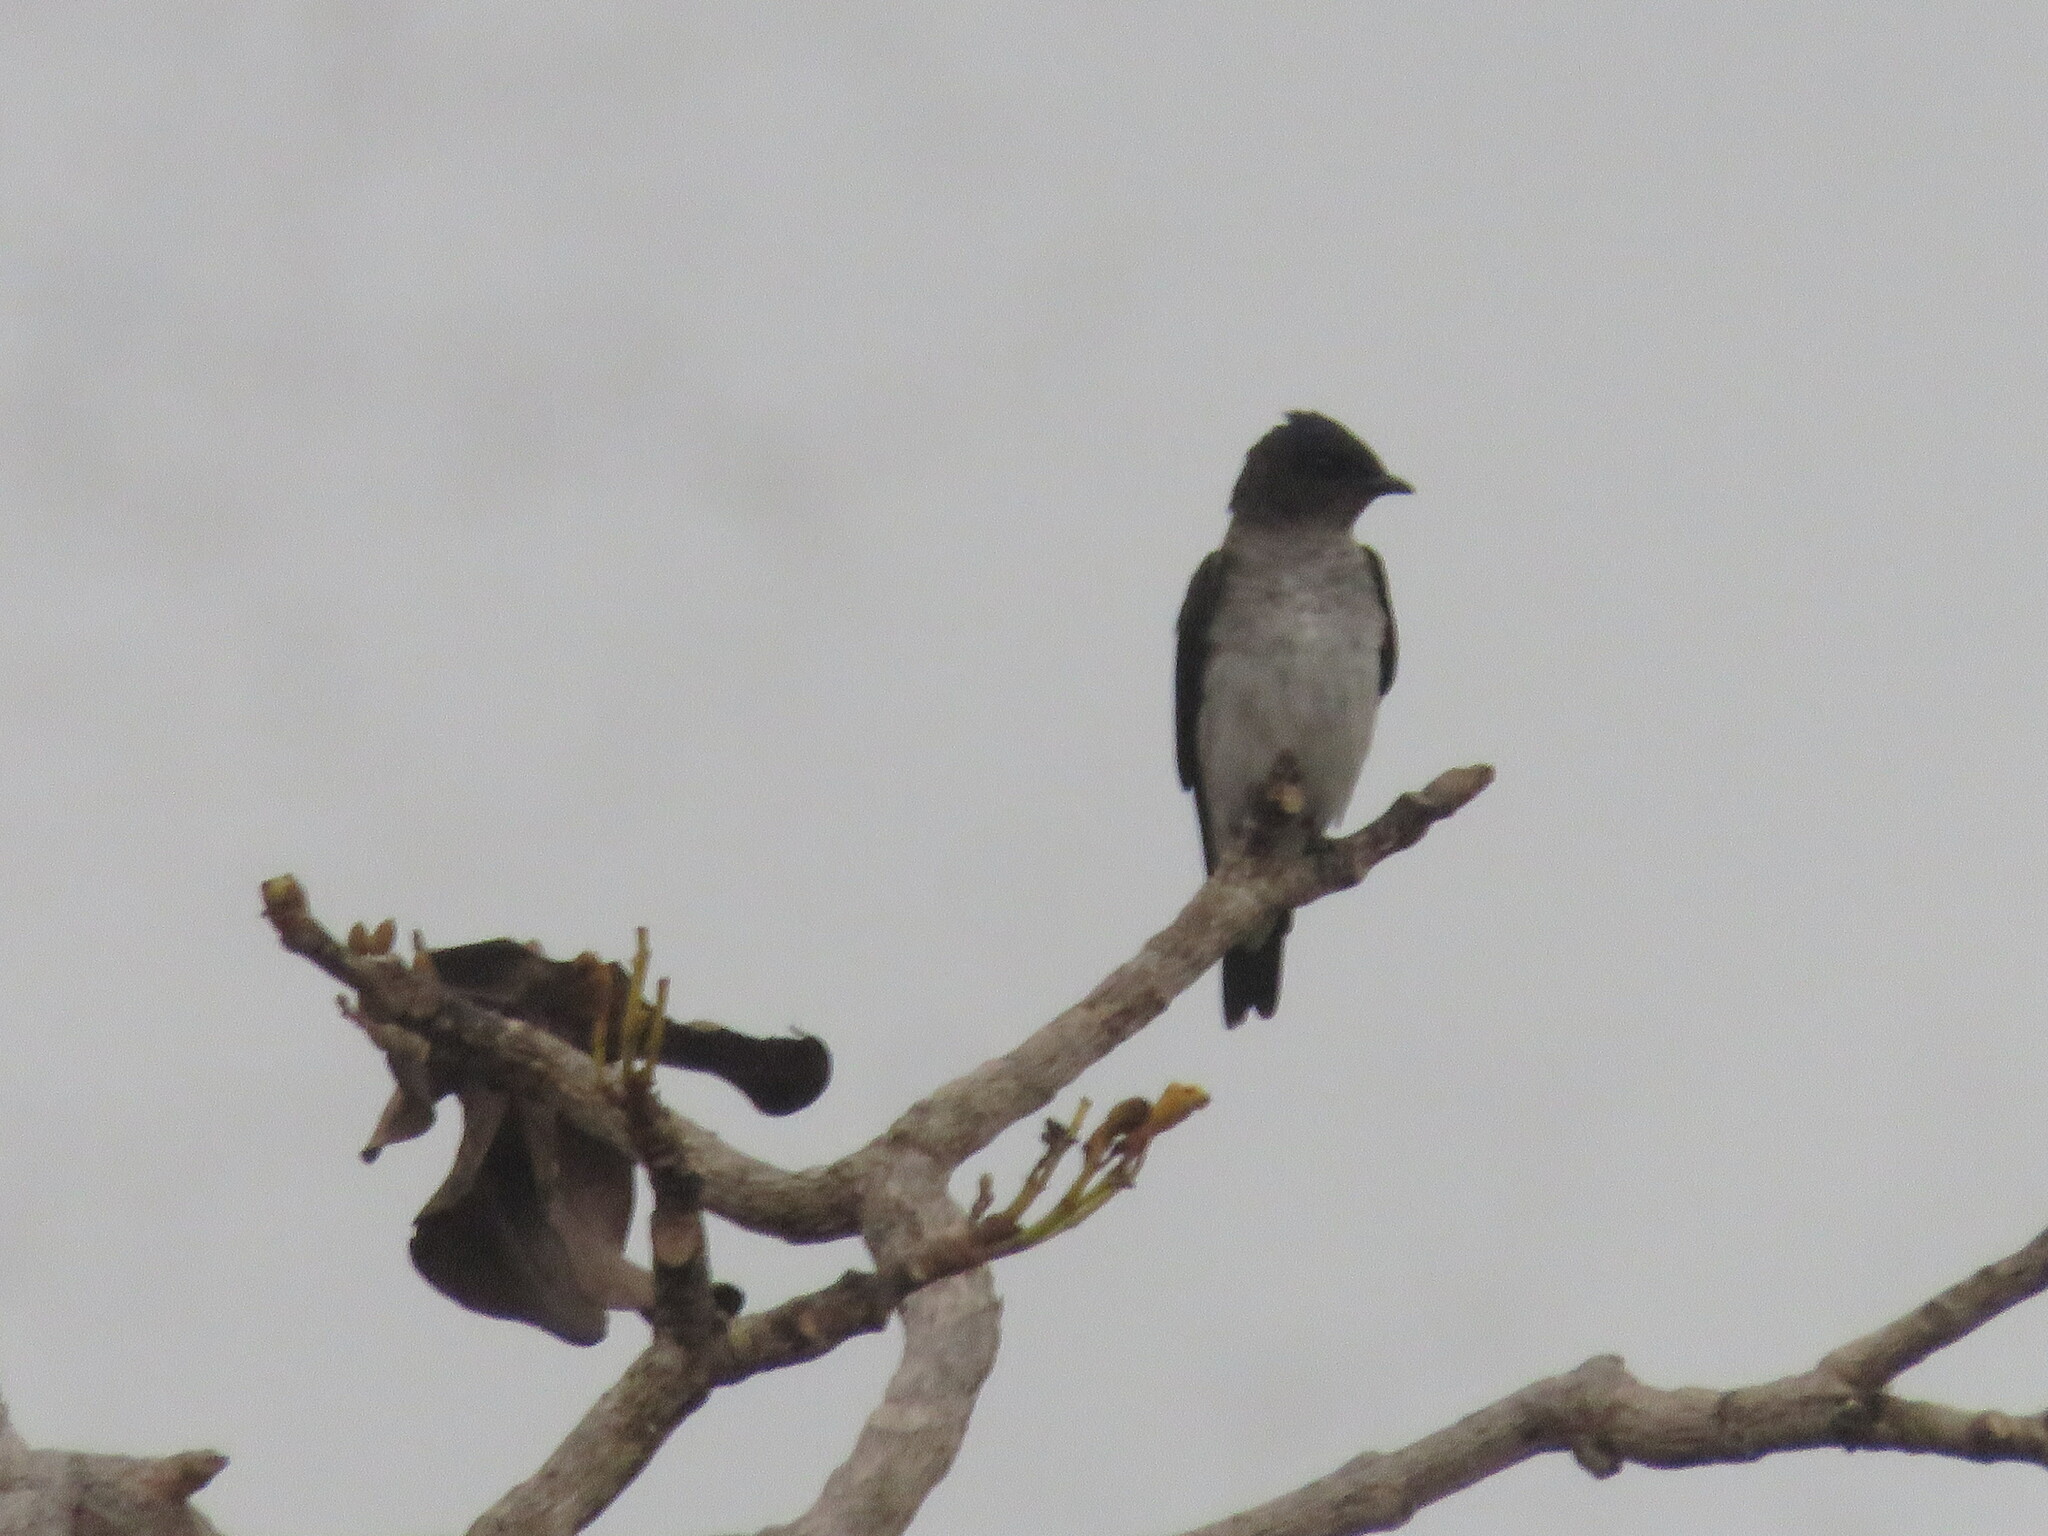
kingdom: Animalia
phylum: Chordata
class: Aves
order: Passeriformes
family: Hirundinidae
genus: Progne
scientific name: Progne chalybea
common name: Grey-breasted martin
